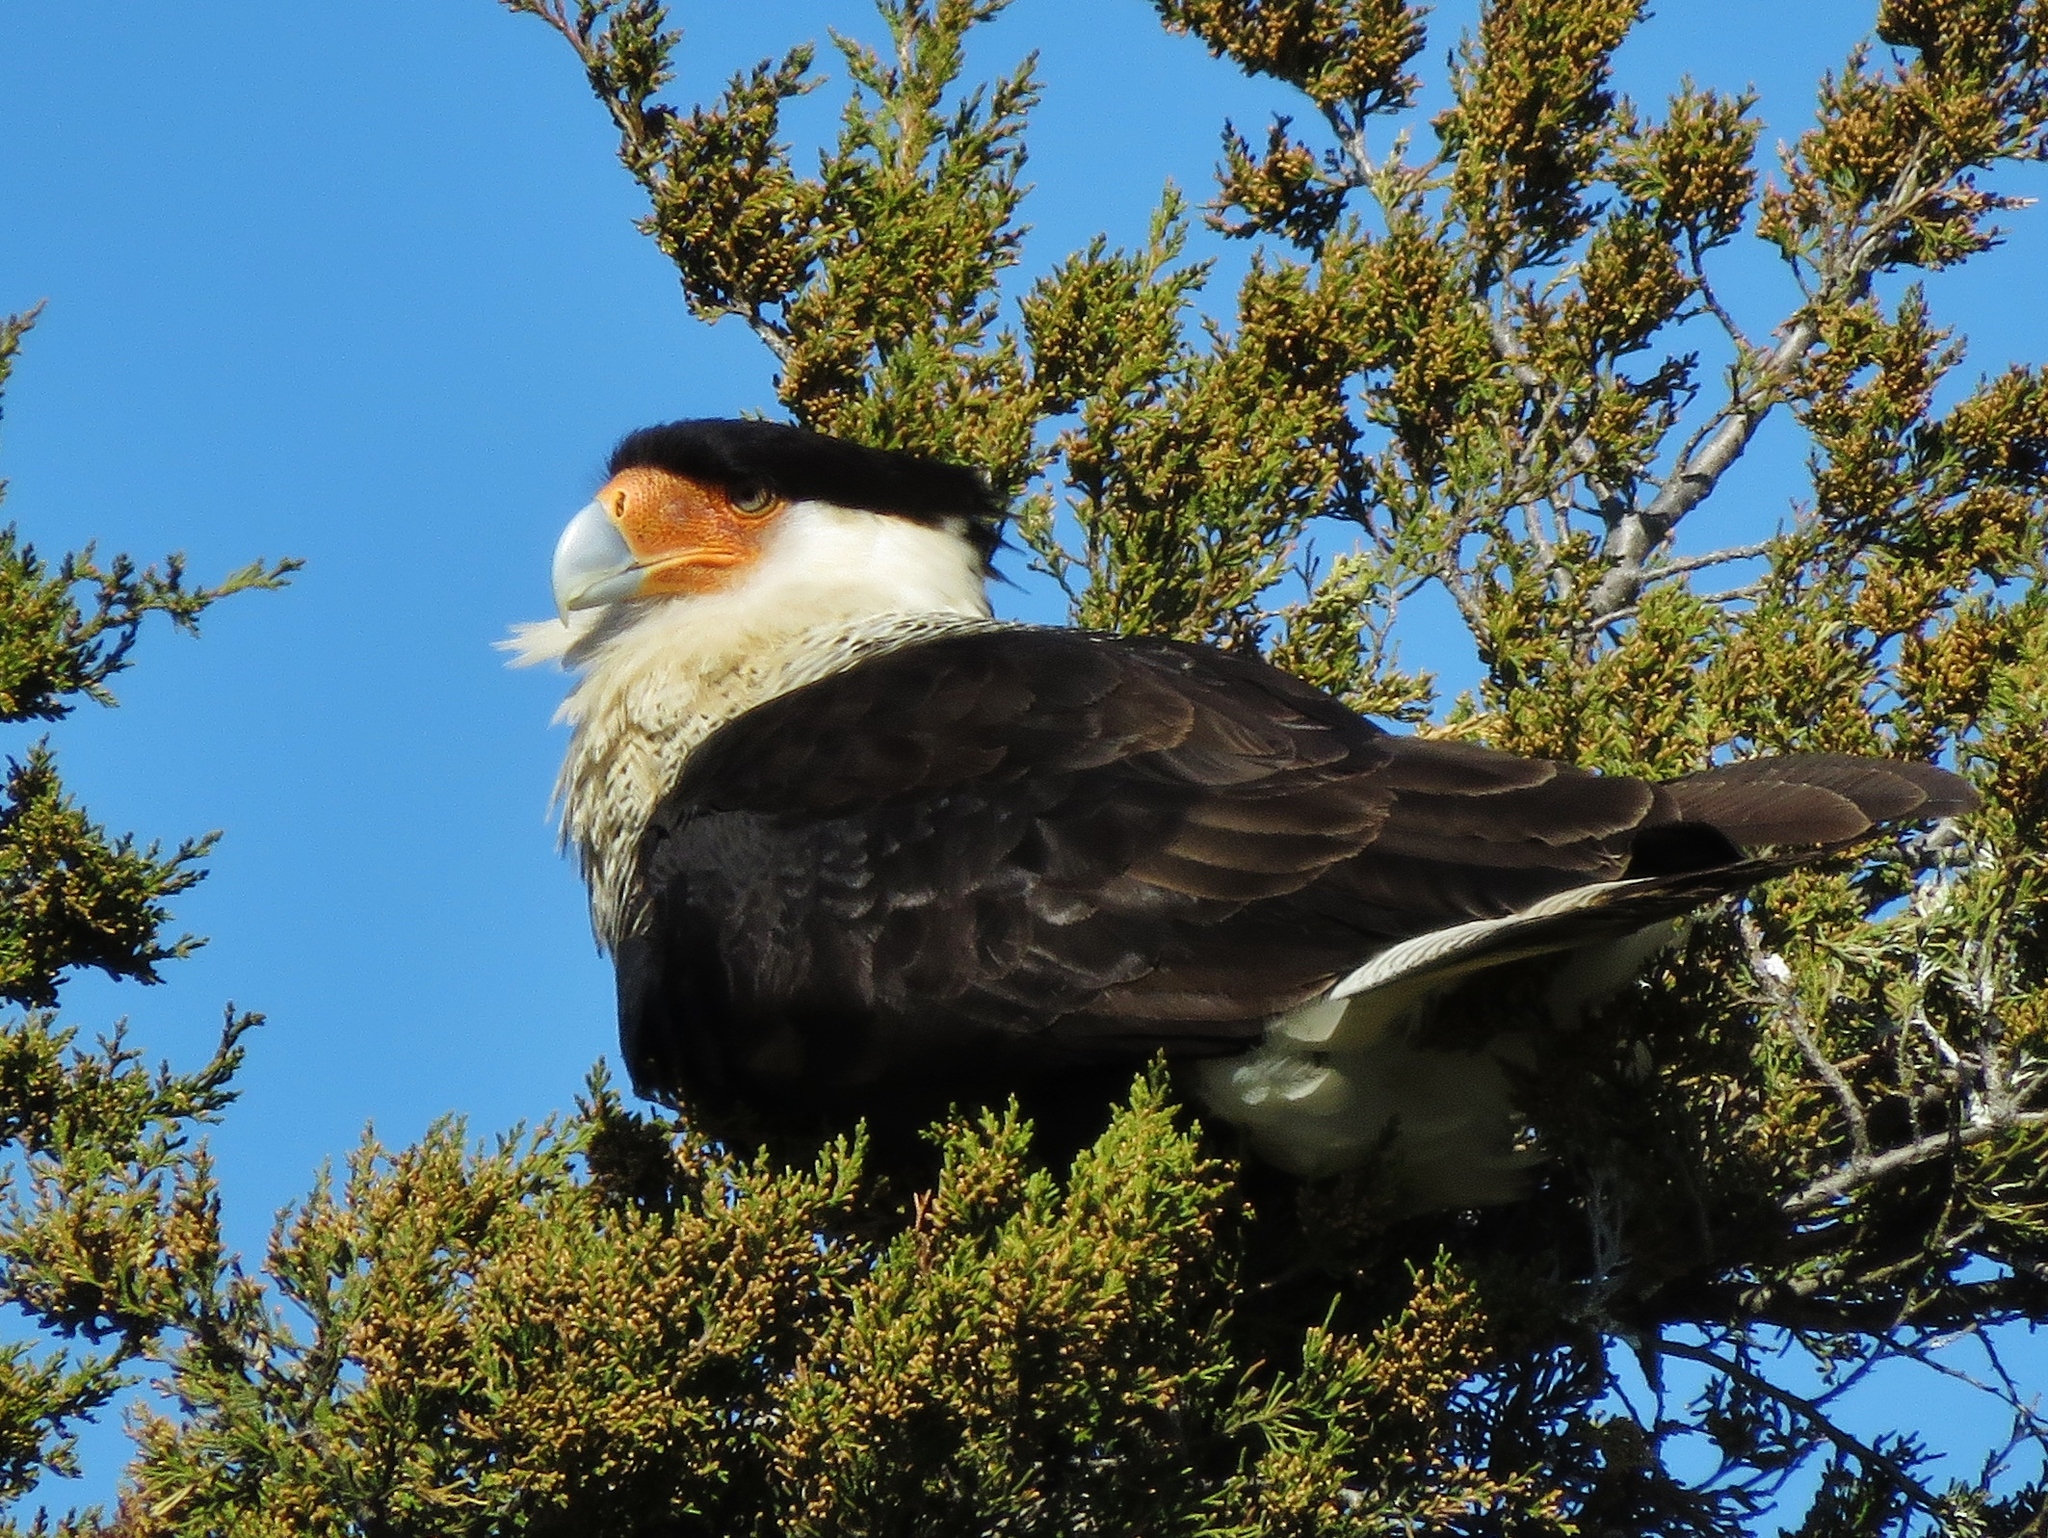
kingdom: Animalia
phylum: Chordata
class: Aves
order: Falconiformes
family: Falconidae
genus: Caracara
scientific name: Caracara plancus
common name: Southern caracara
